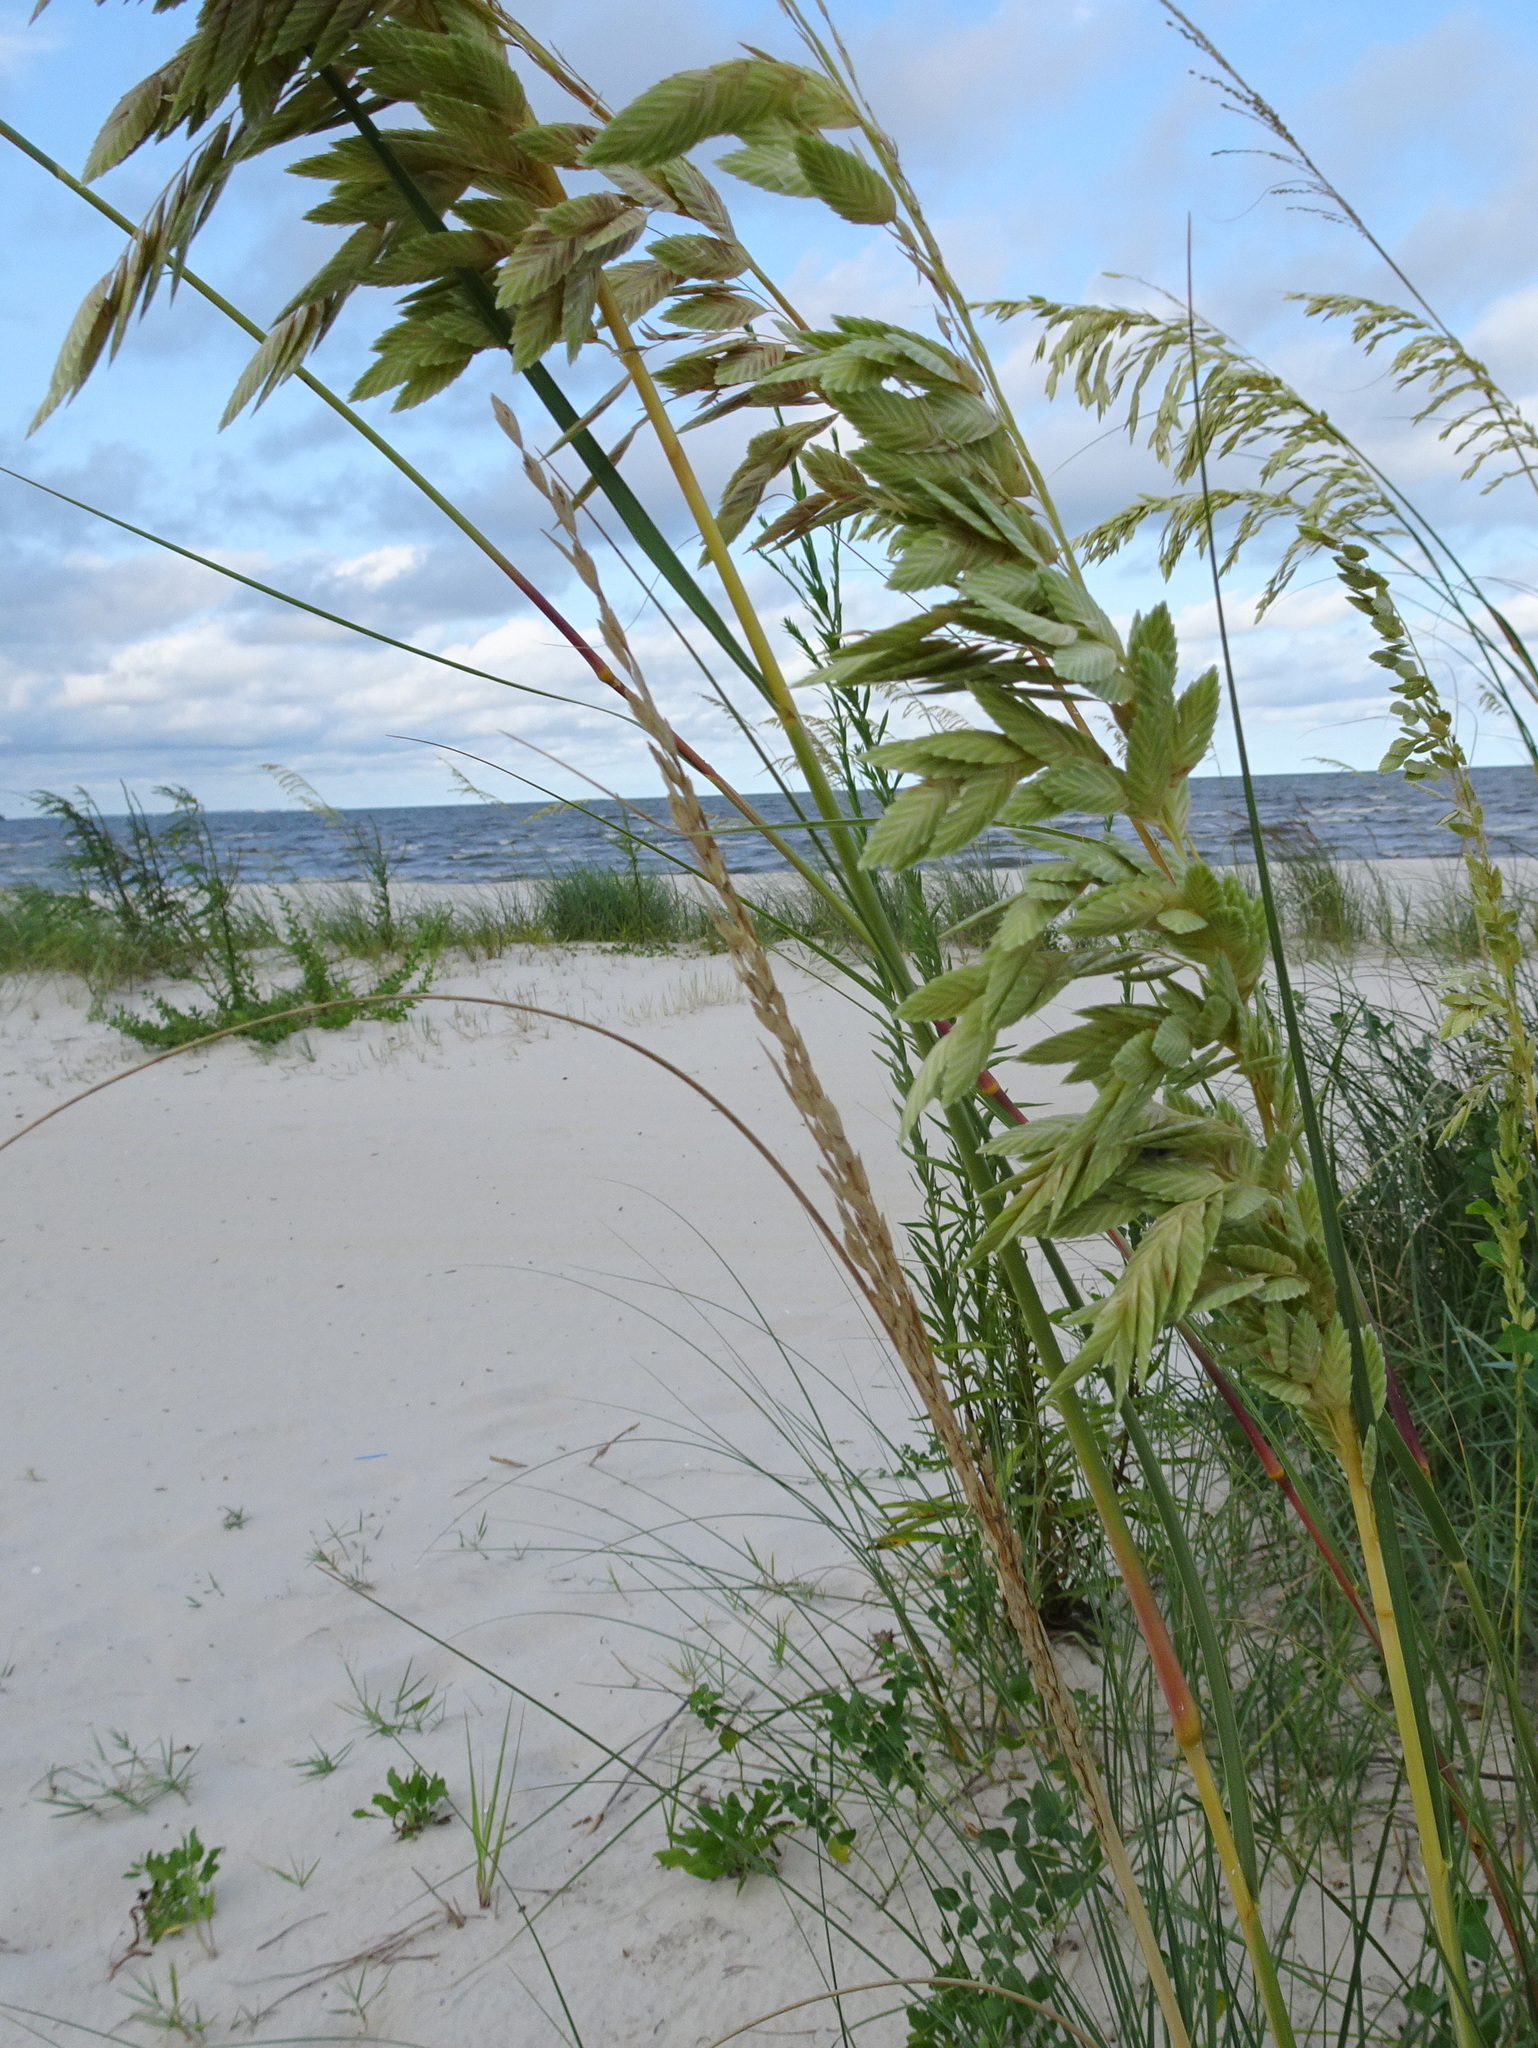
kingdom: Plantae
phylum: Tracheophyta
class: Liliopsida
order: Poales
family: Poaceae
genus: Uniola
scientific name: Uniola paniculata
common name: Seaside-oats
